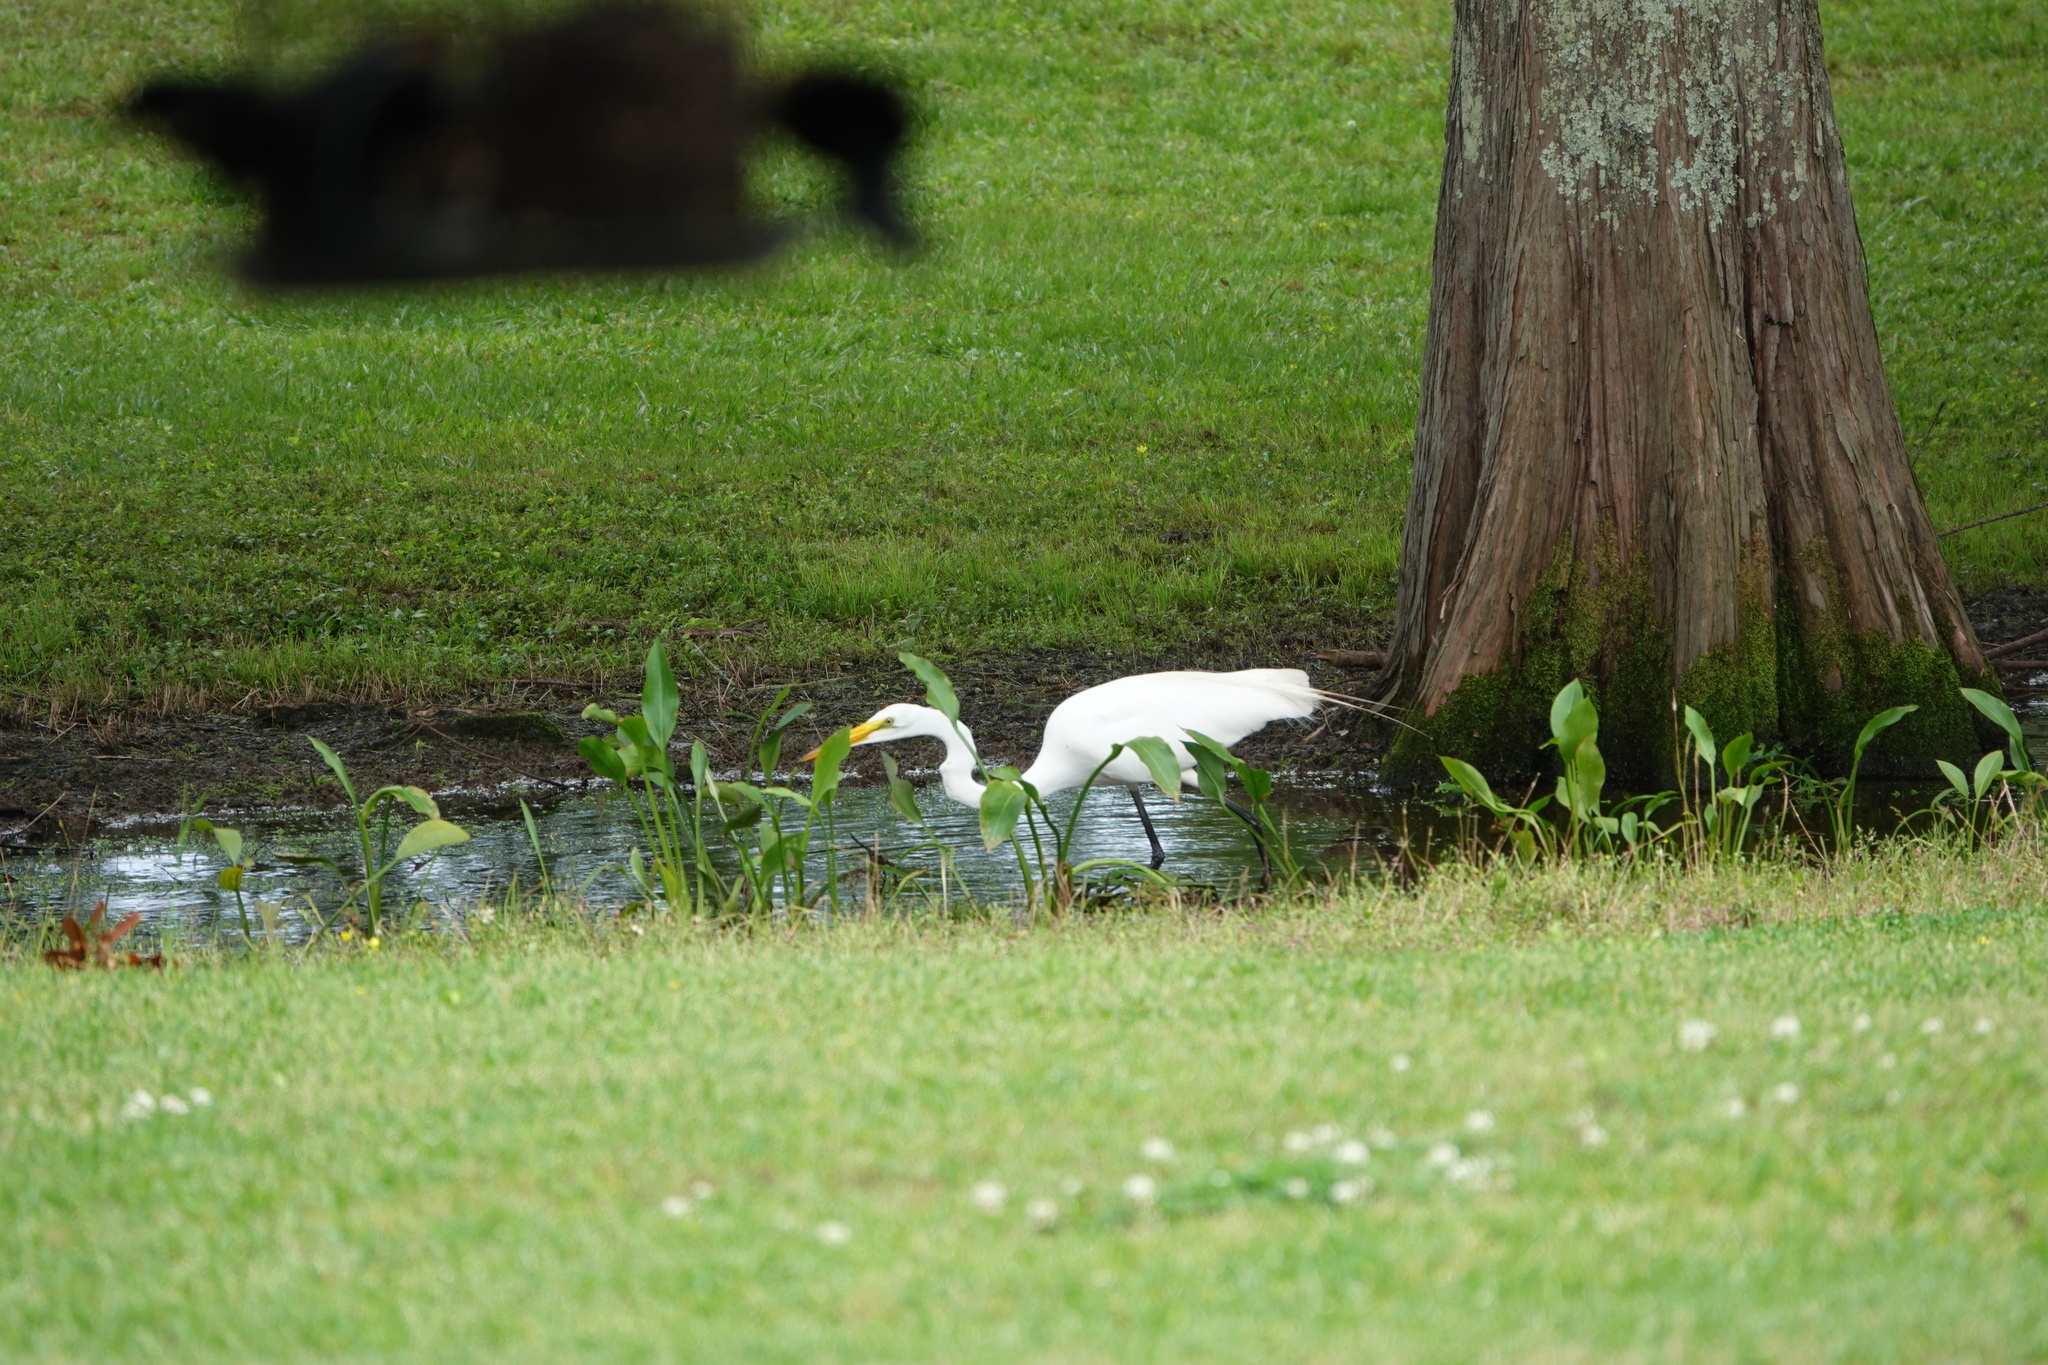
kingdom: Animalia
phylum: Chordata
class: Aves
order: Pelecaniformes
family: Ardeidae
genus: Ardea
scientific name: Ardea alba
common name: Great egret
